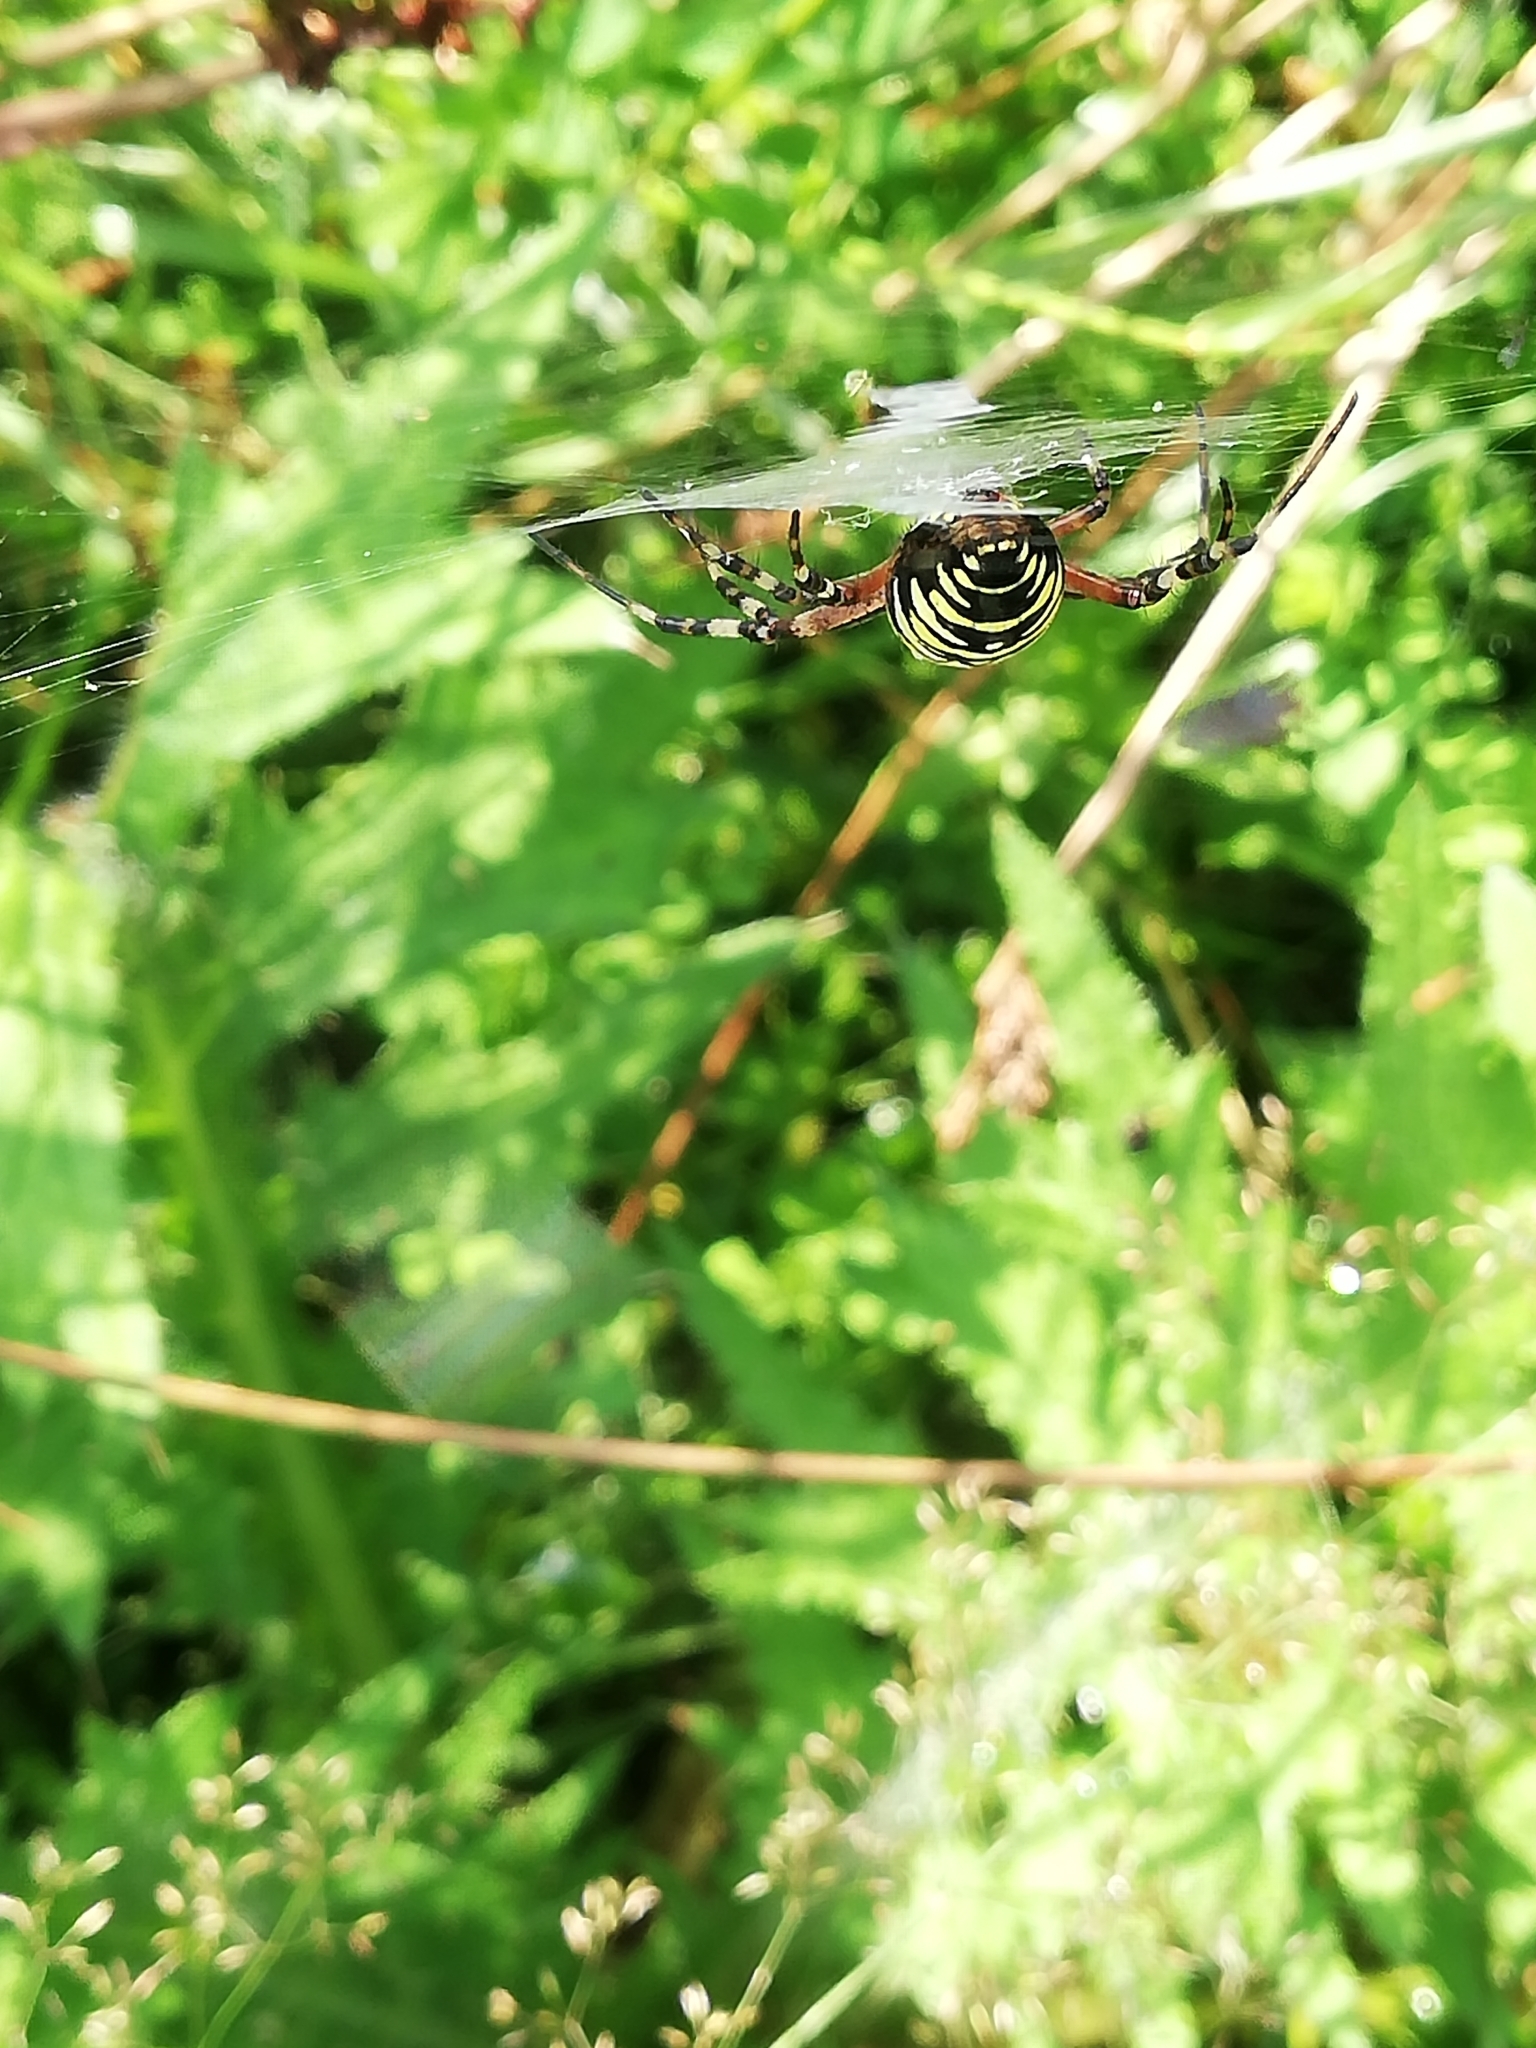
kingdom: Animalia
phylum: Arthropoda
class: Arachnida
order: Araneae
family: Araneidae
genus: Argiope
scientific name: Argiope bruennichi
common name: Wasp spider
